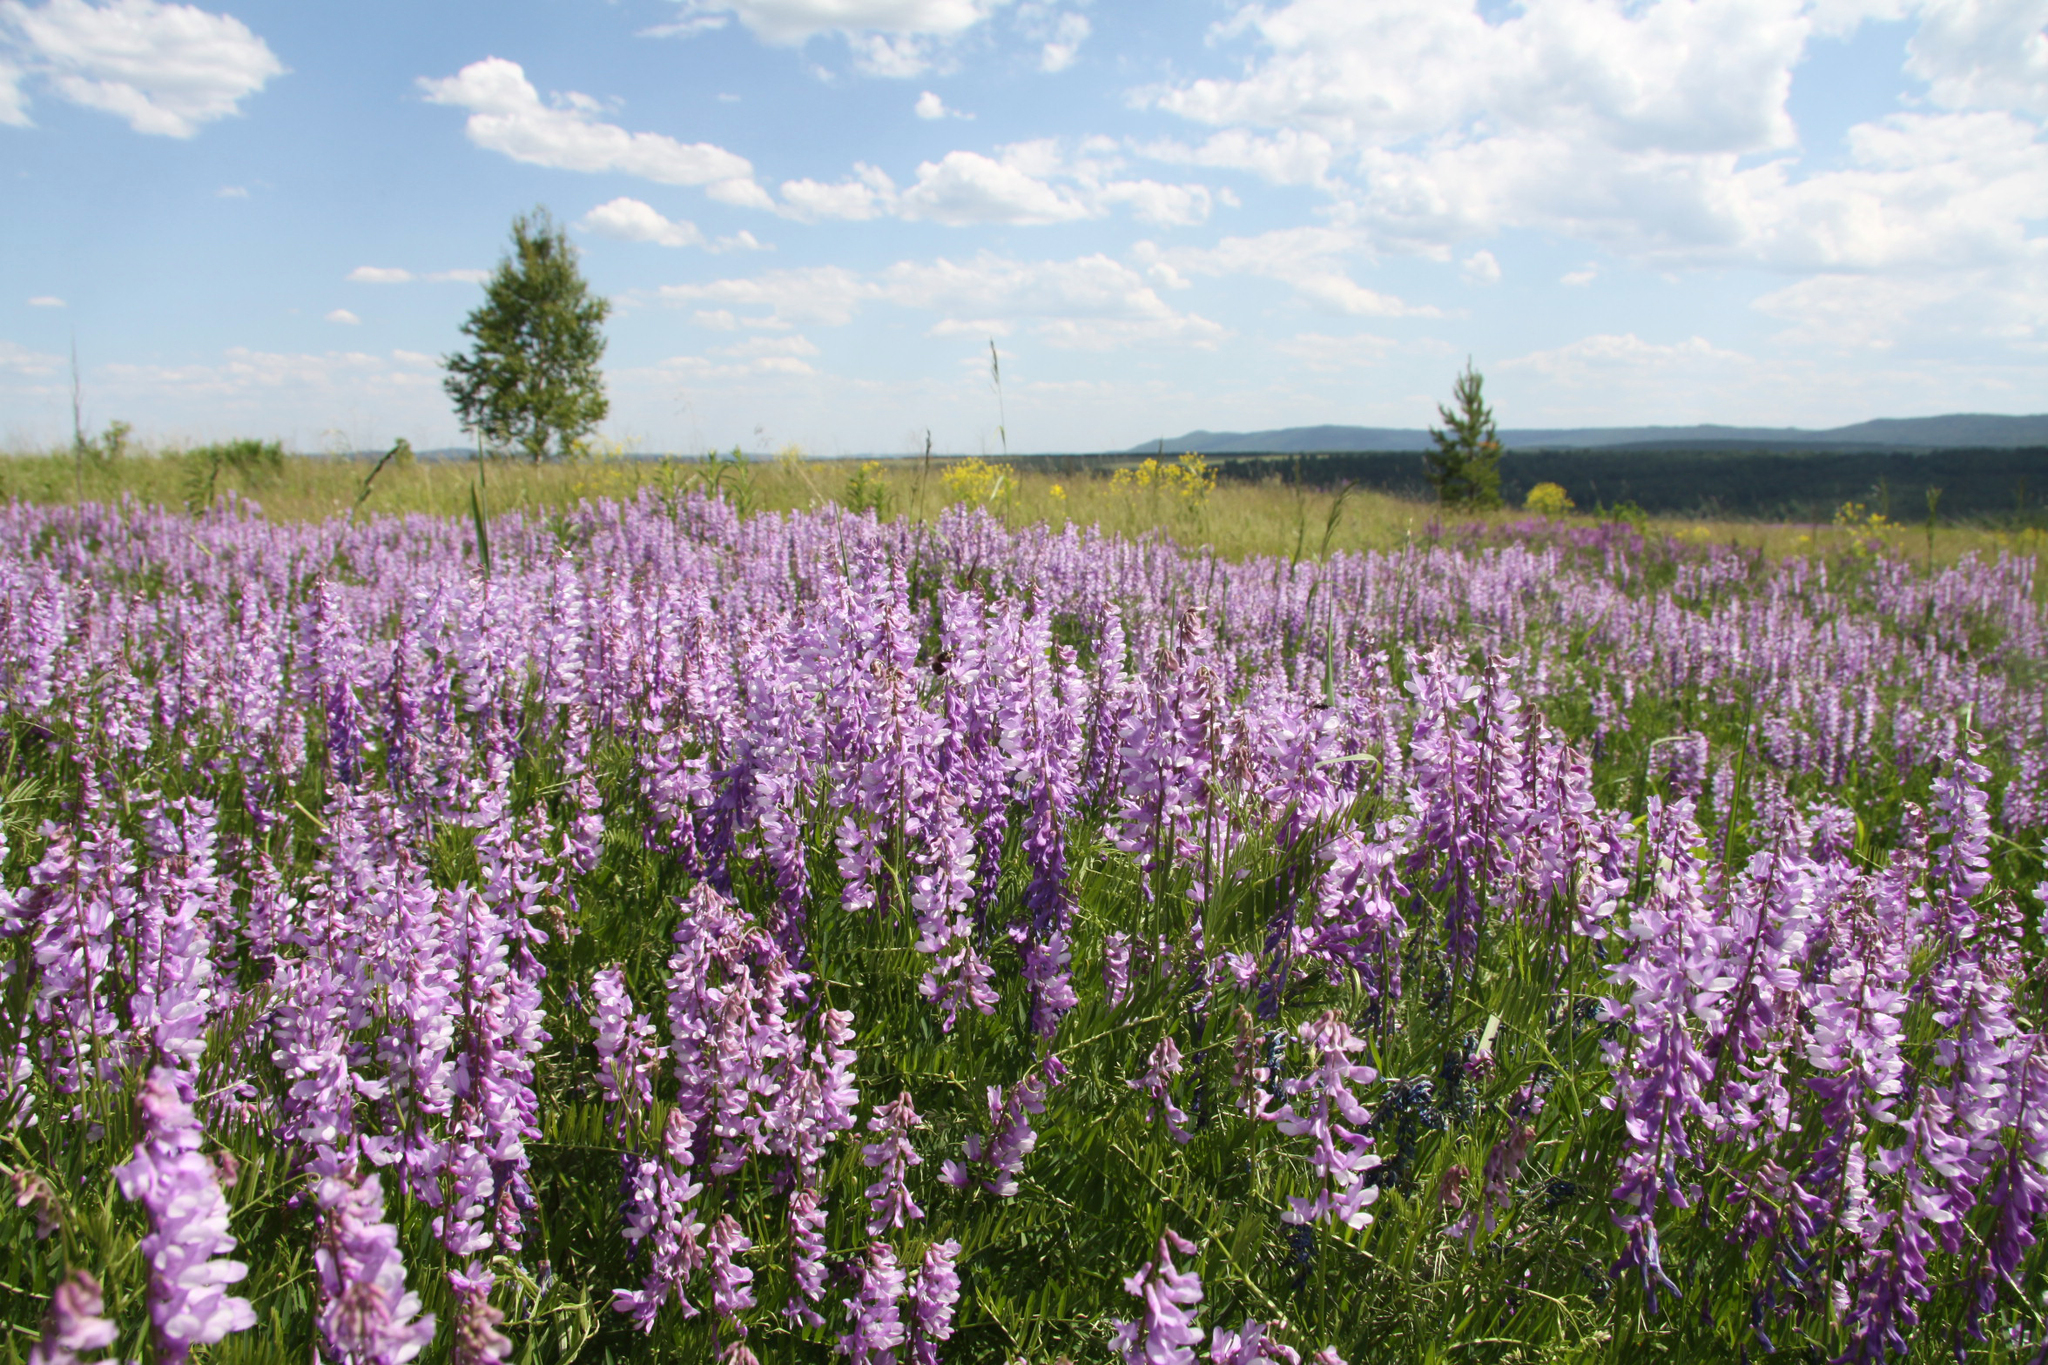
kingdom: Plantae
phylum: Tracheophyta
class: Magnoliopsida
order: Fabales
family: Fabaceae
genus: Vicia
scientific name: Vicia tenuifolia
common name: Fine-leaved vetch
